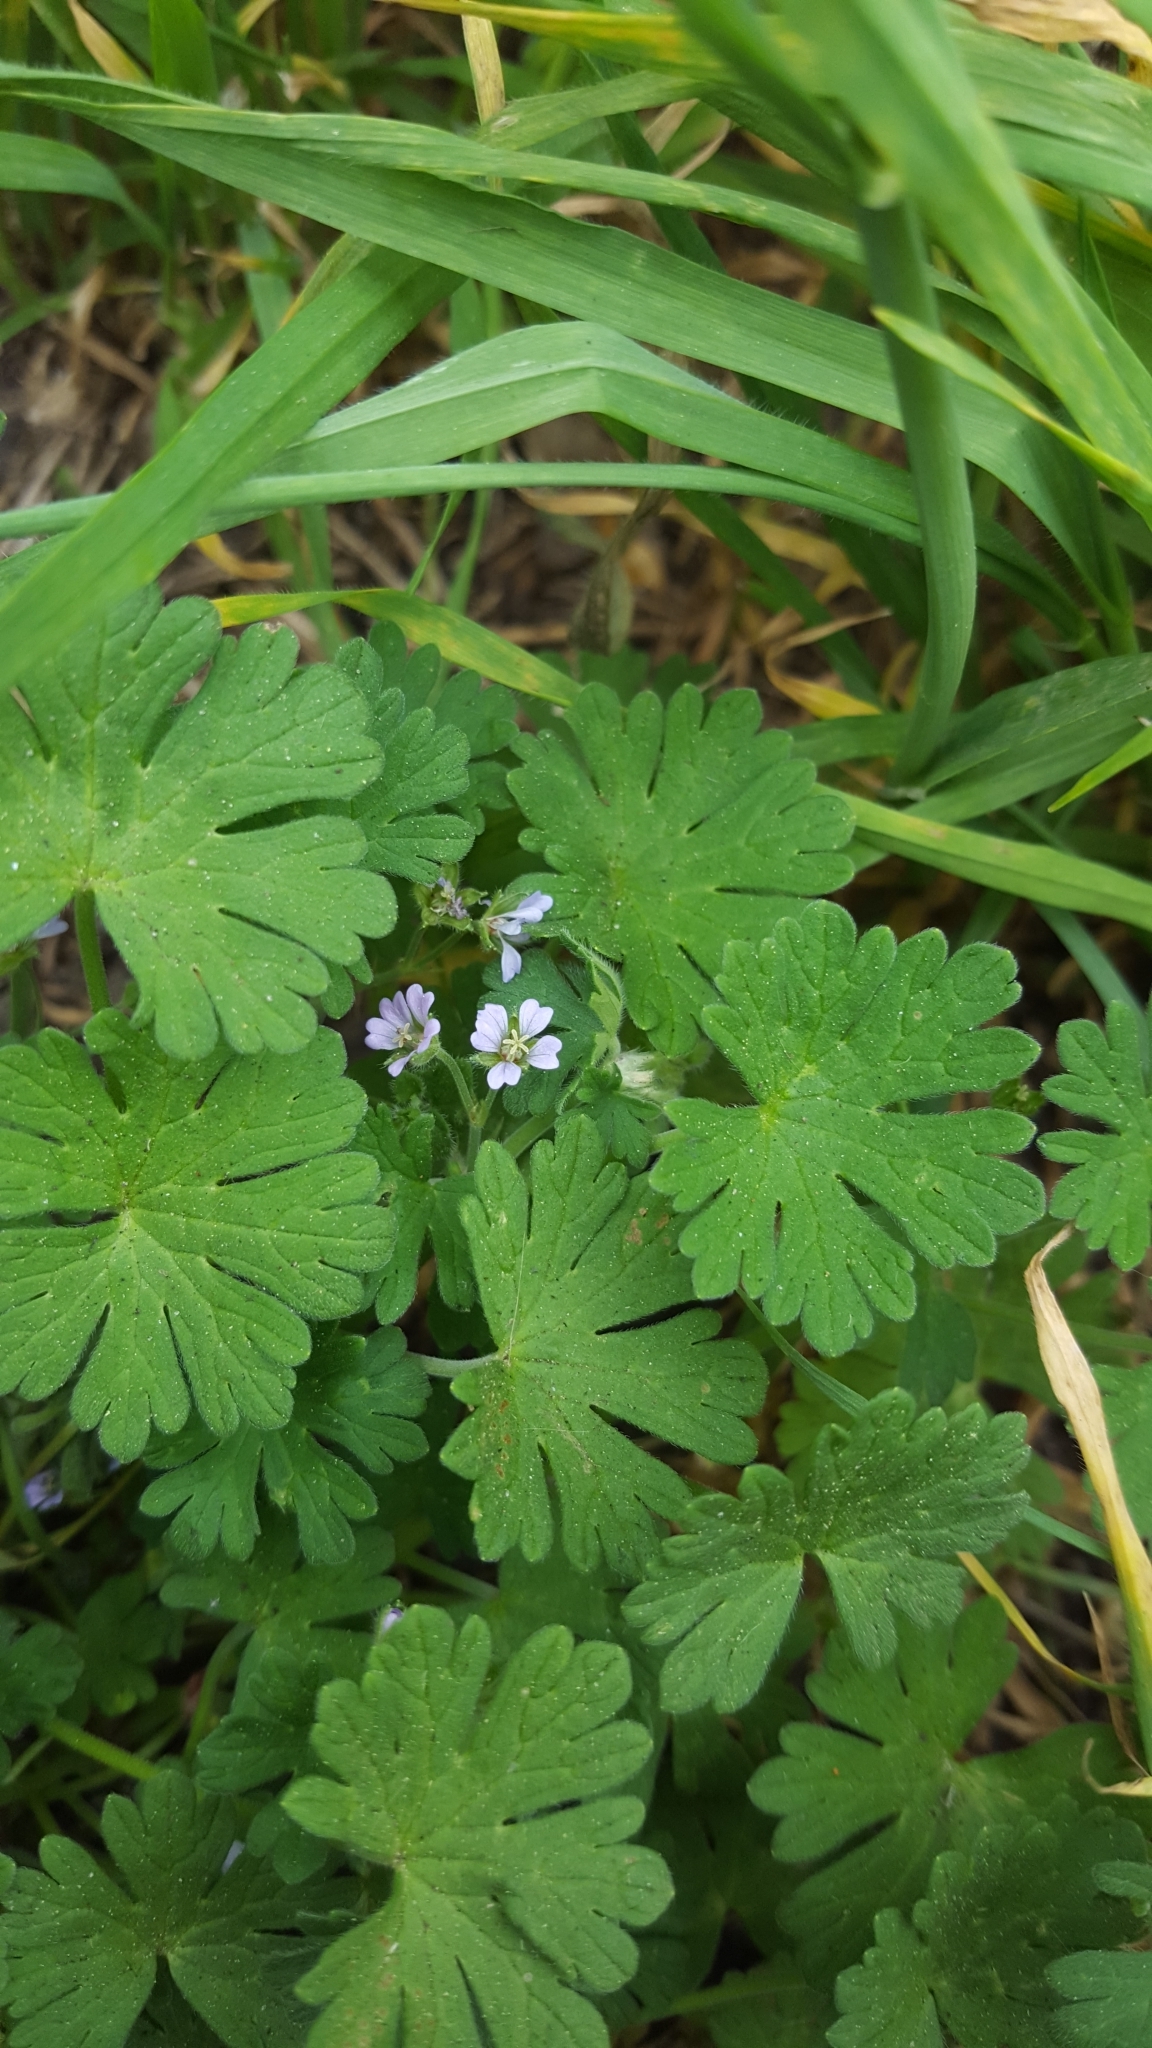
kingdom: Plantae
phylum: Tracheophyta
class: Magnoliopsida
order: Geraniales
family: Geraniaceae
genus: Geranium
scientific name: Geranium pusillum
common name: Small geranium
